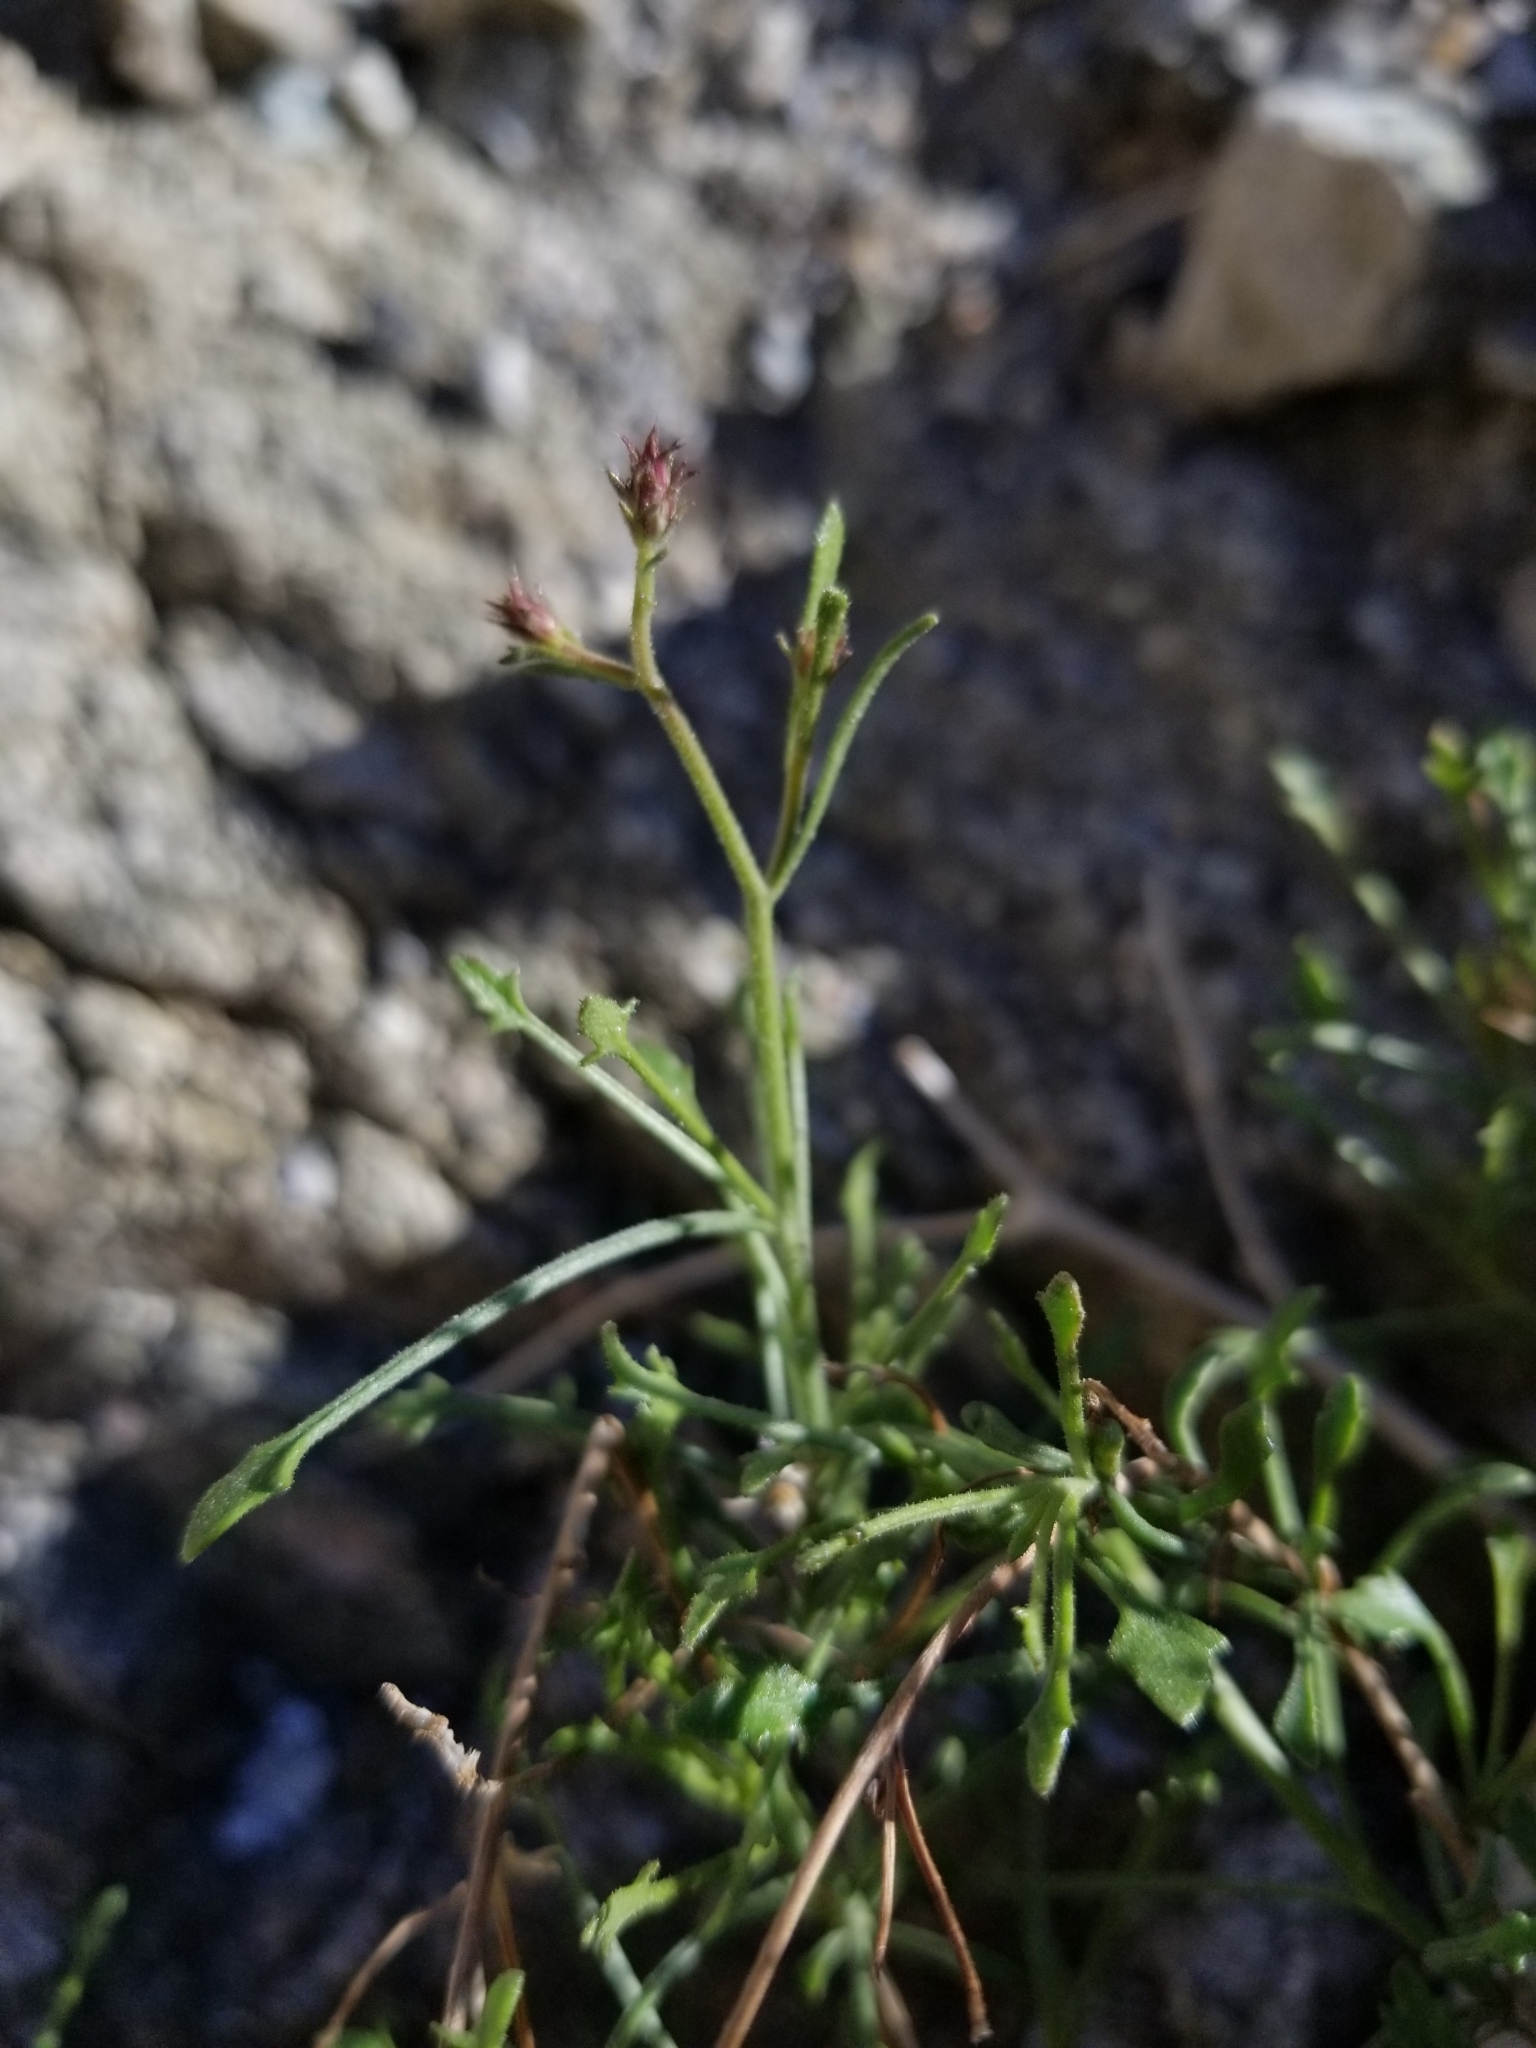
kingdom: Plantae
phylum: Tracheophyta
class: Magnoliopsida
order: Asterales
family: Asteraceae
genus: Pleurocoronis
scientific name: Pleurocoronis pluriseta
